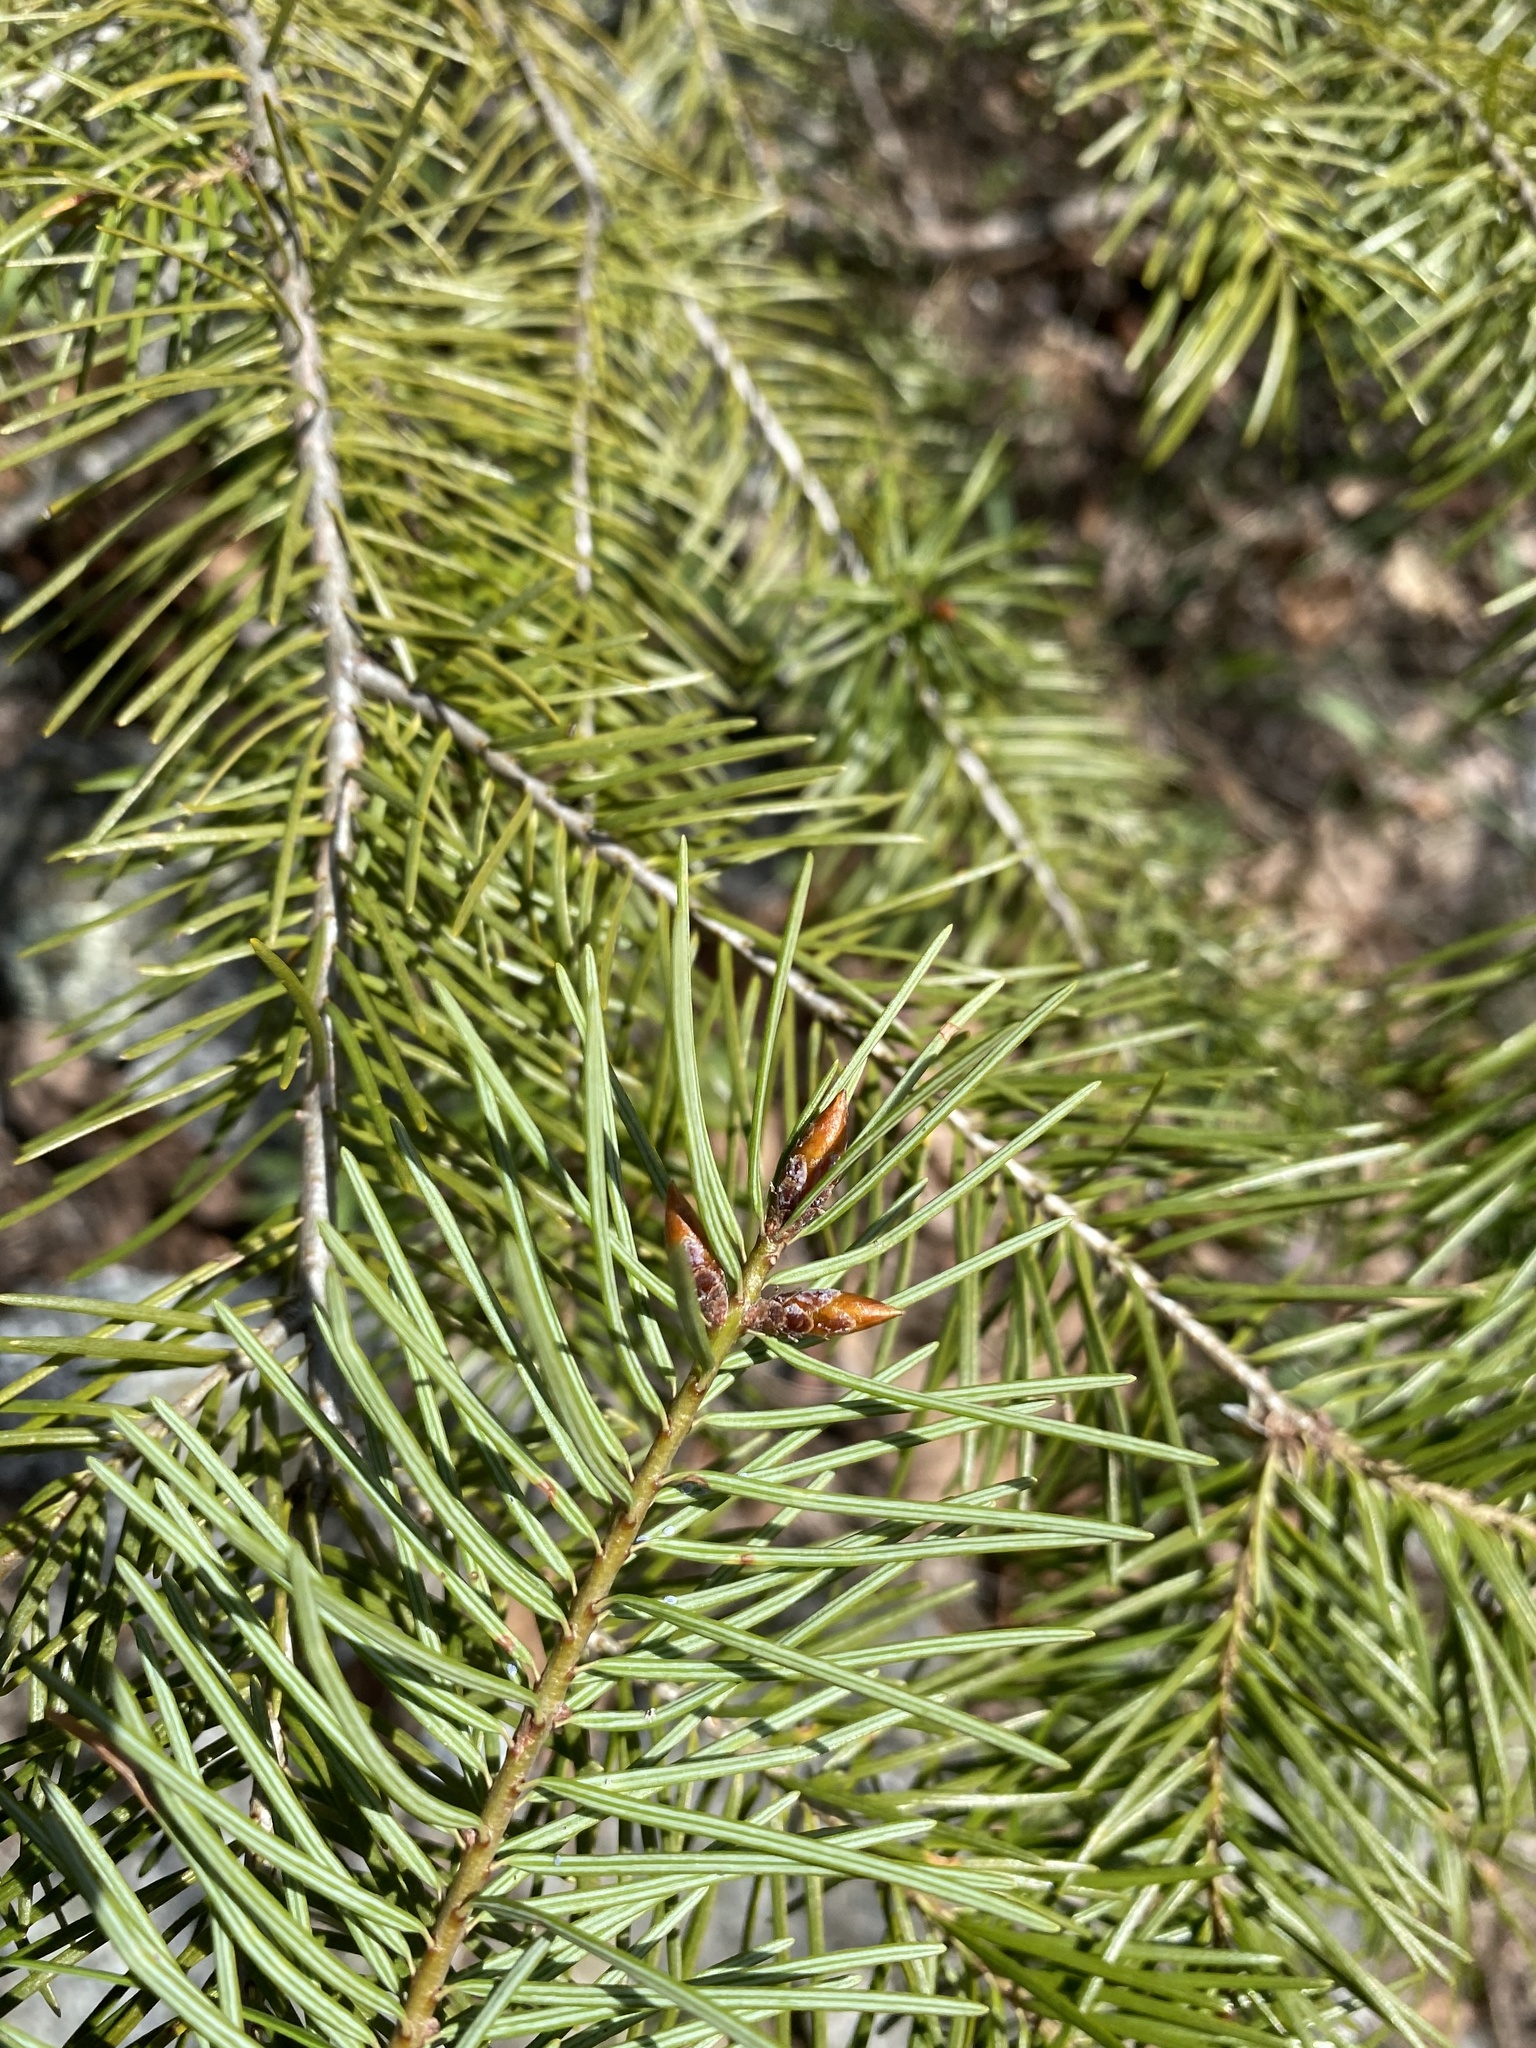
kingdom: Plantae
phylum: Tracheophyta
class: Pinopsida
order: Pinales
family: Pinaceae
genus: Pseudotsuga
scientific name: Pseudotsuga menziesii
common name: Douglas fir
